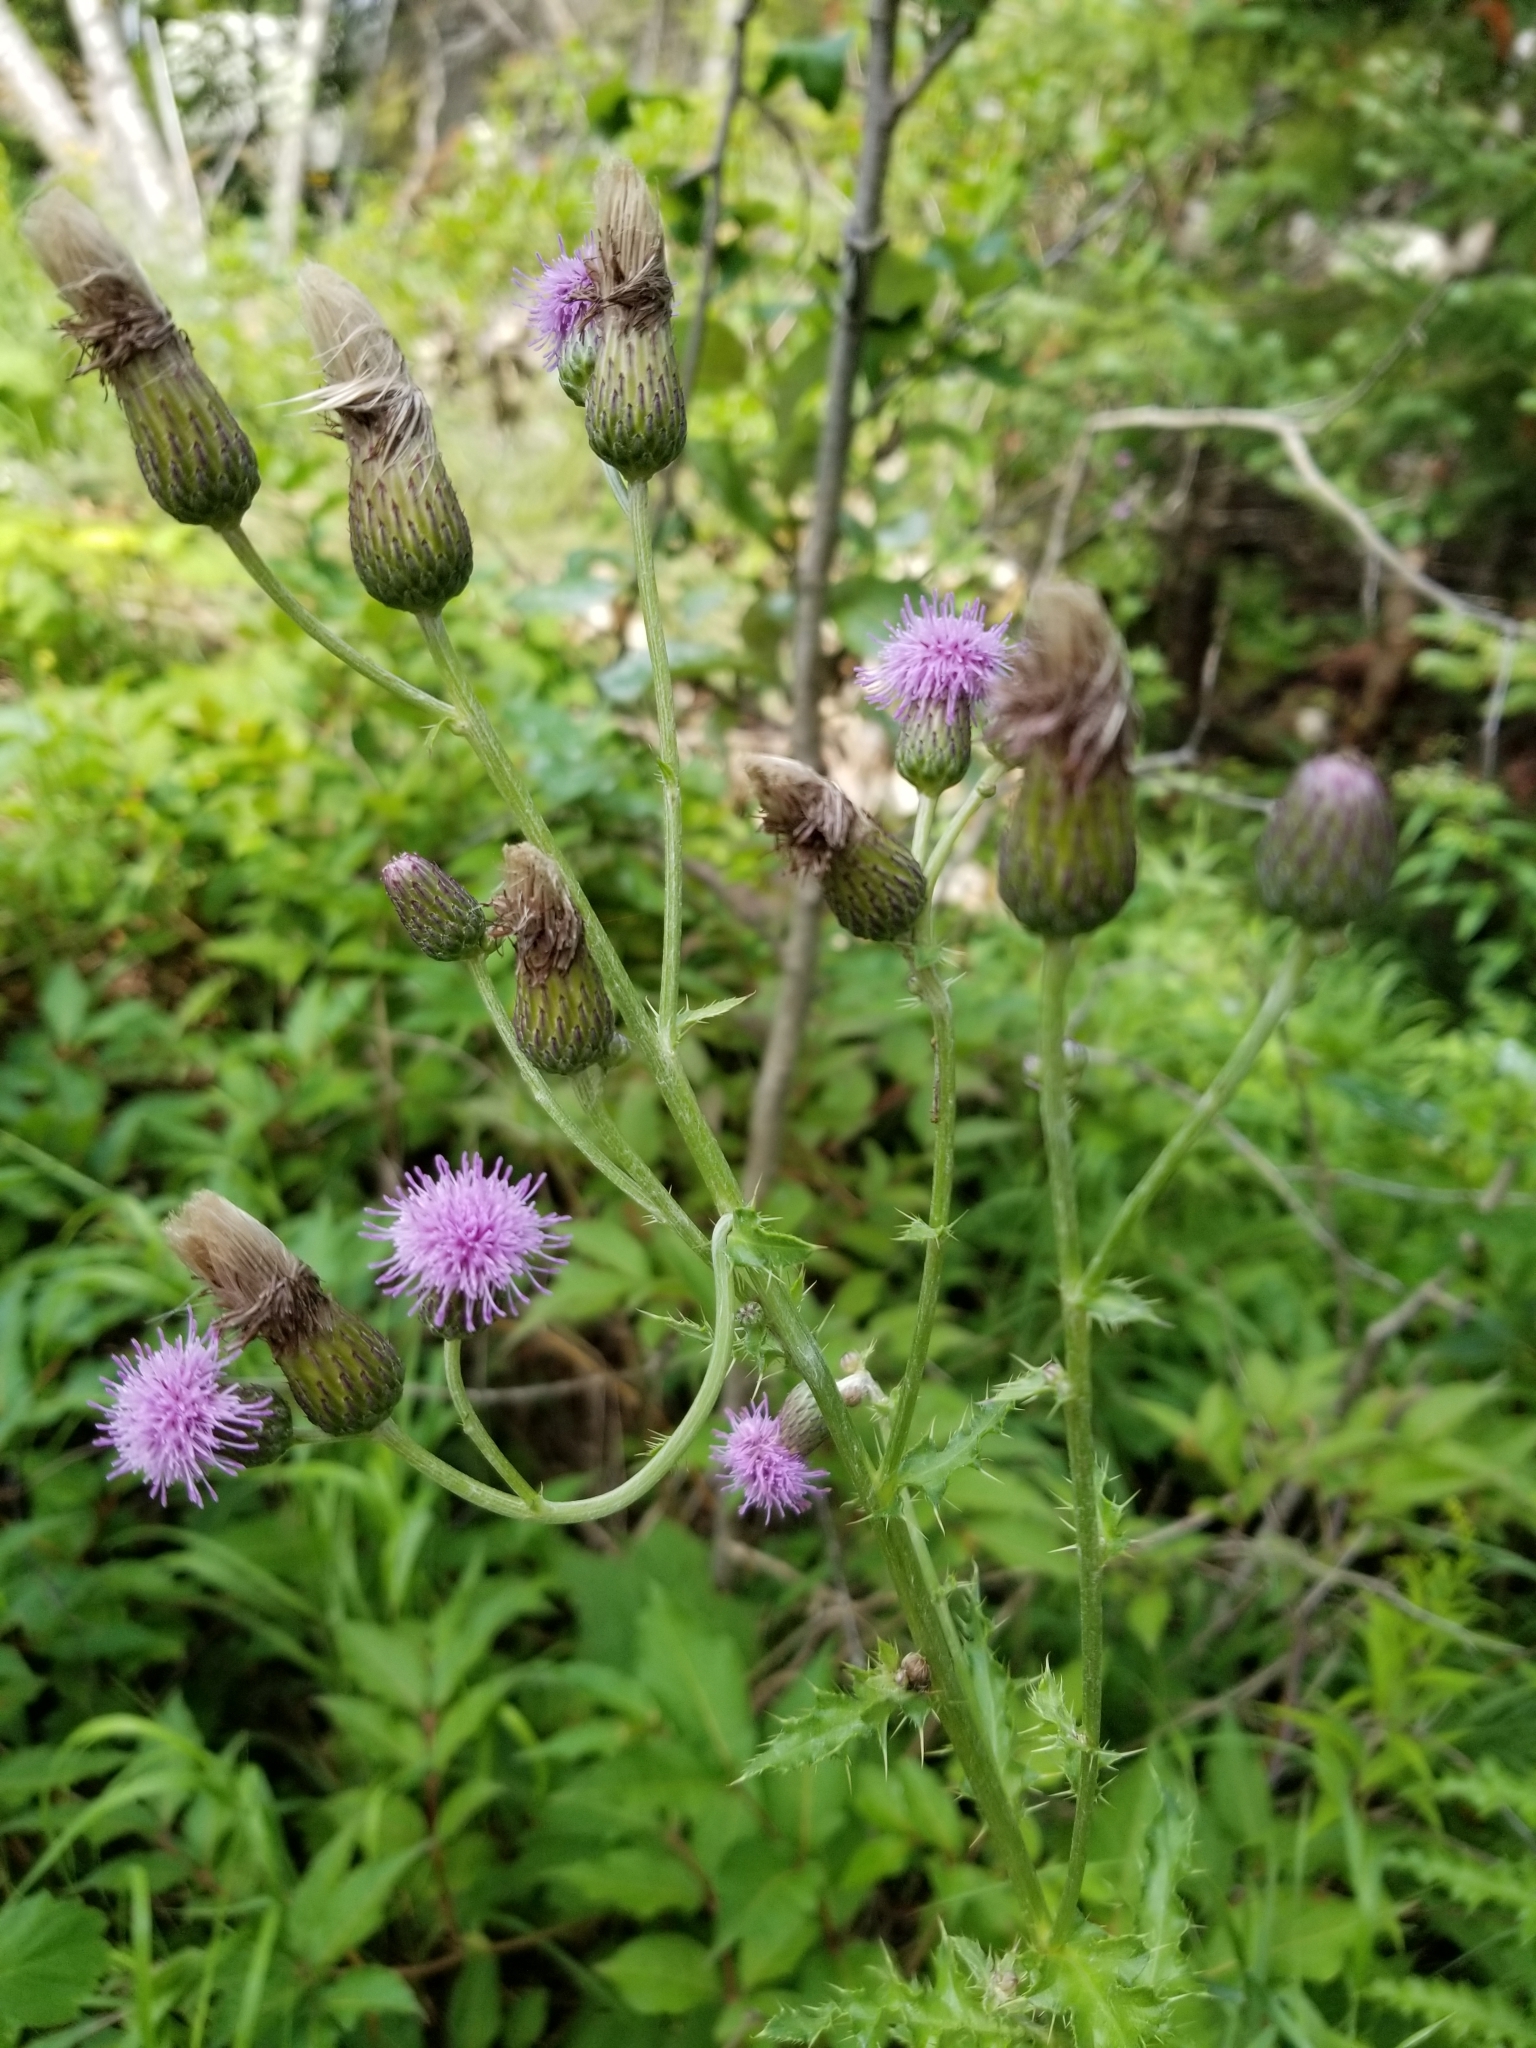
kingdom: Plantae
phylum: Tracheophyta
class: Magnoliopsida
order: Asterales
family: Asteraceae
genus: Cirsium
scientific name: Cirsium arvense
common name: Creeping thistle
